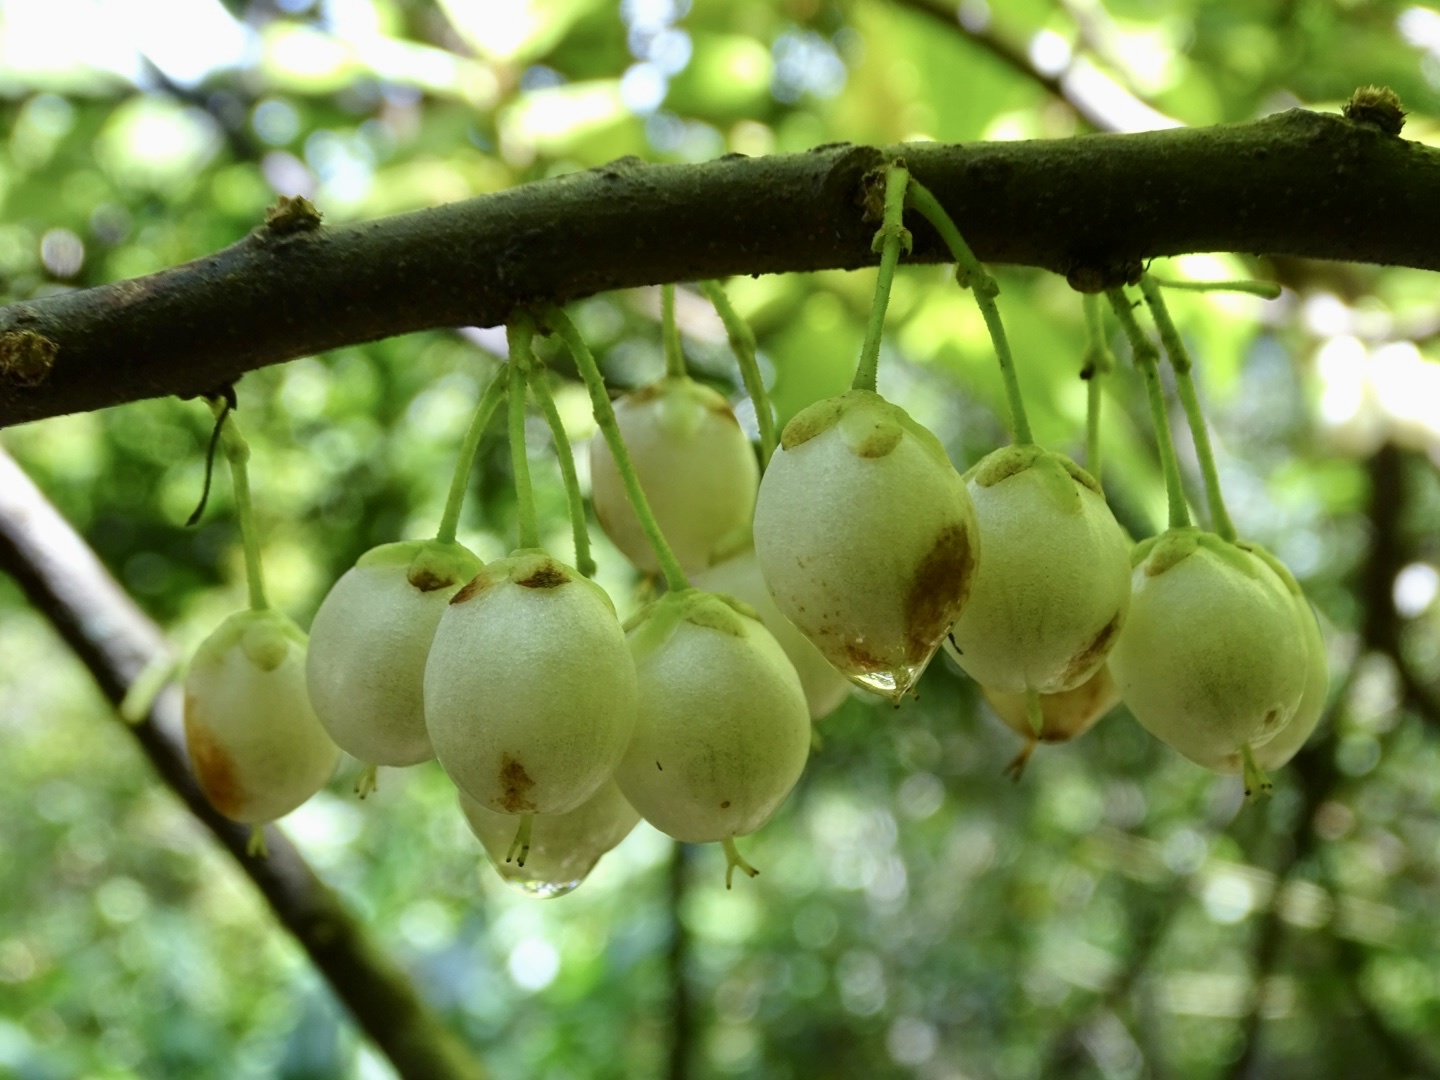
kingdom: Plantae
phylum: Tracheophyta
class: Magnoliopsida
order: Ericales
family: Actinidiaceae
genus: Saurauia
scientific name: Saurauia tristyla
